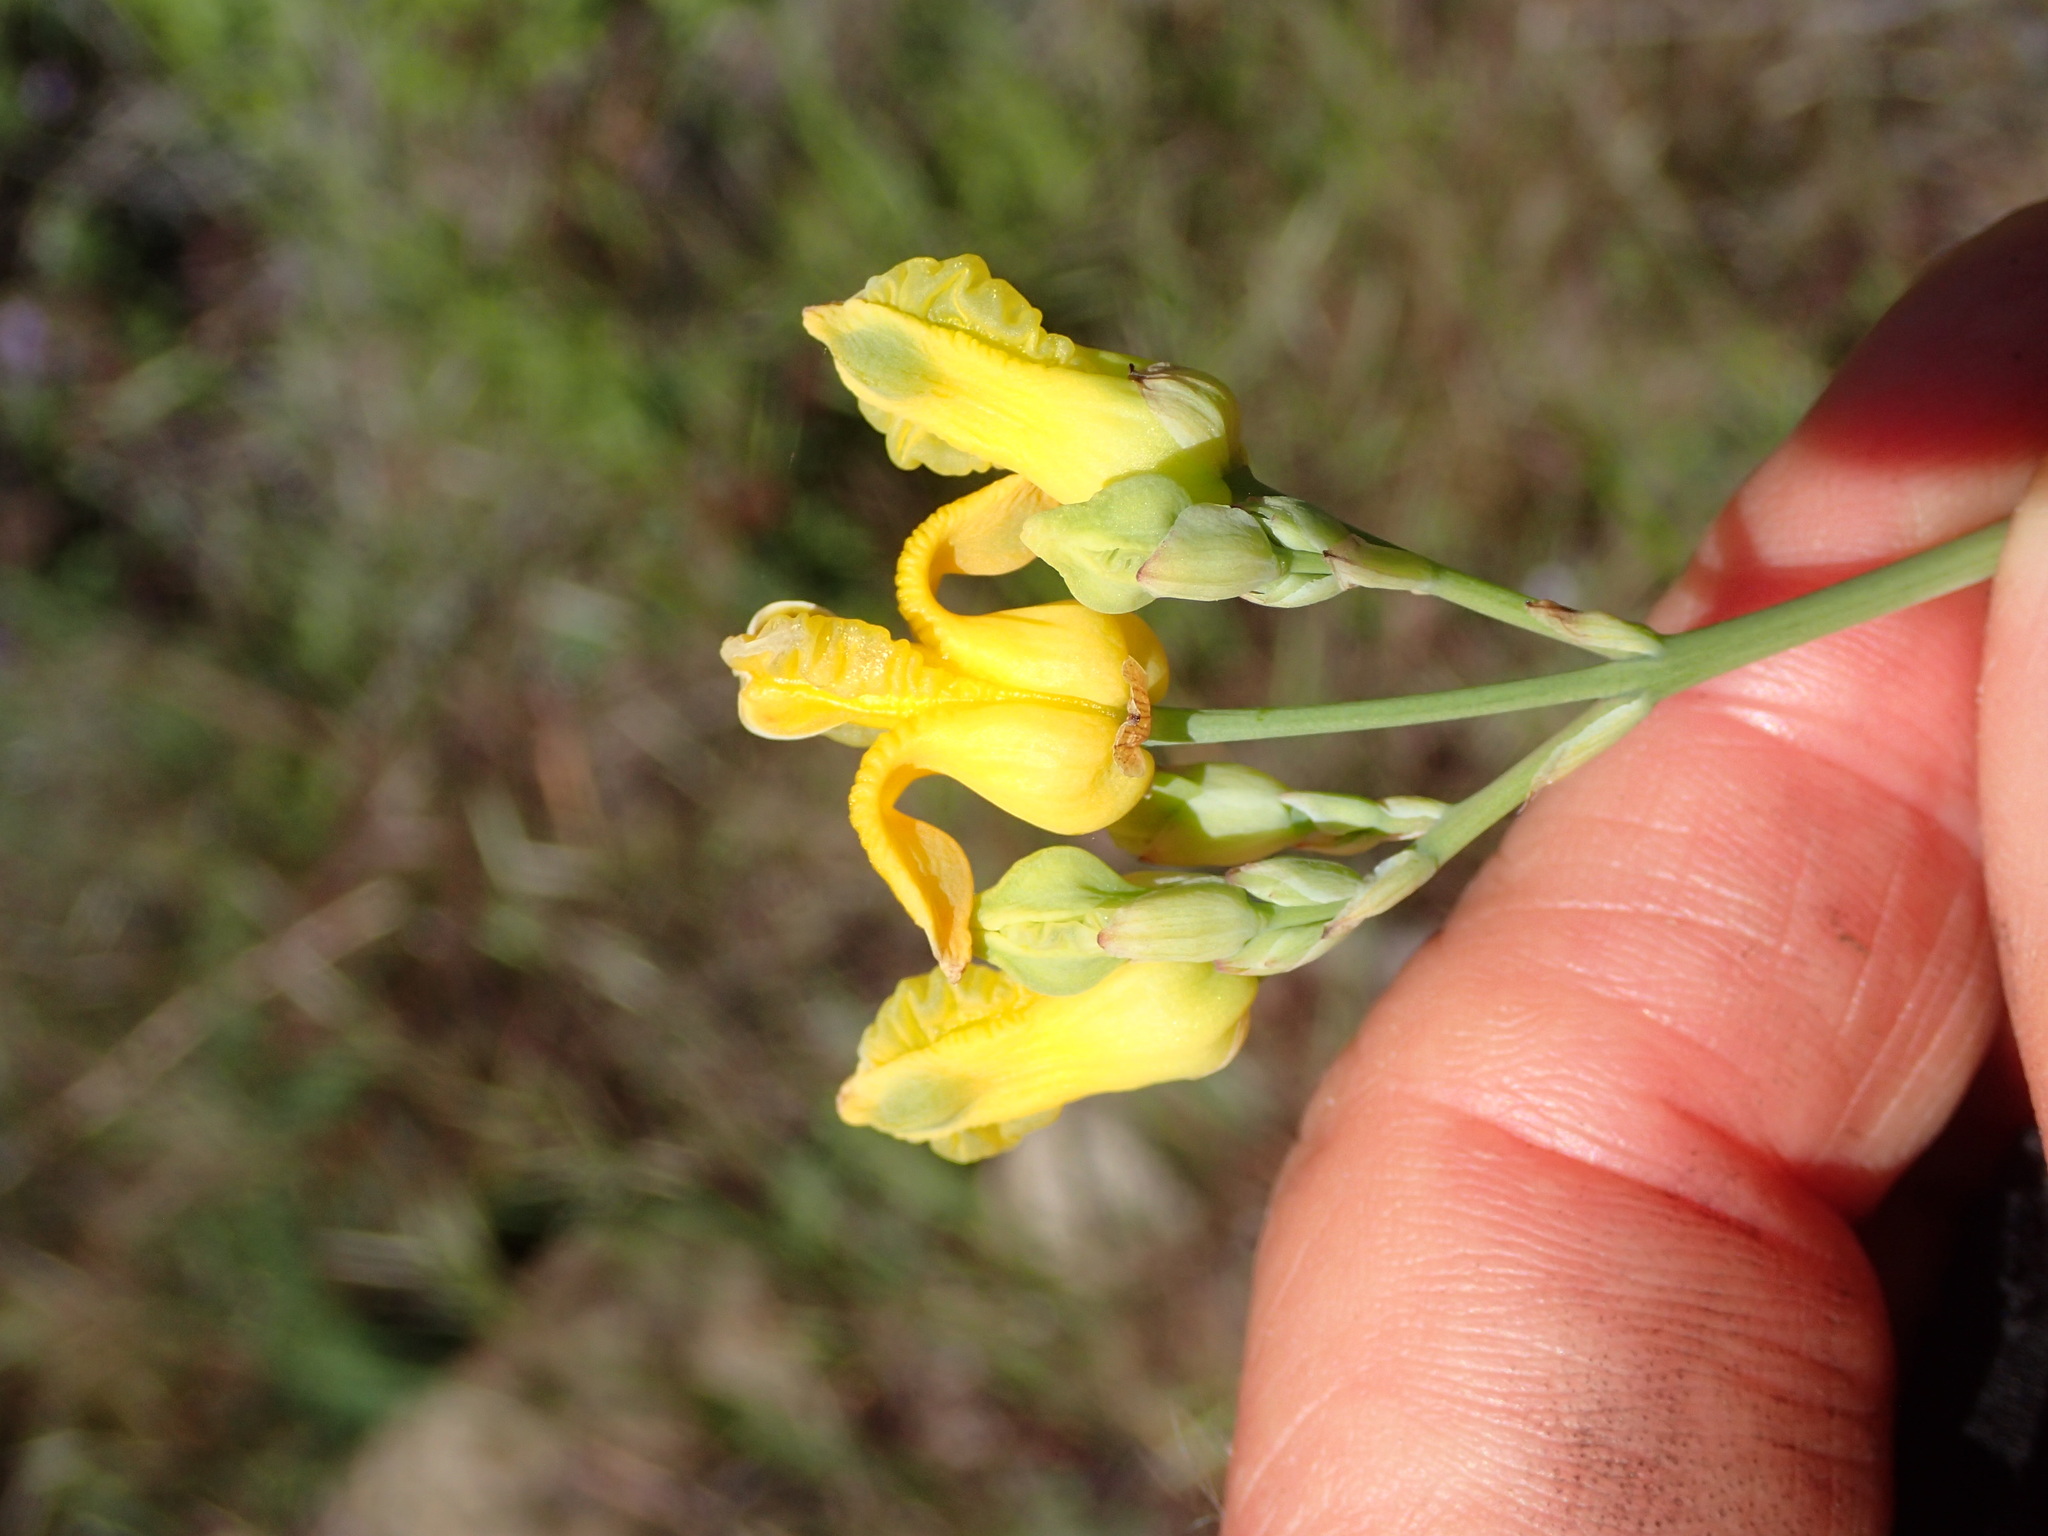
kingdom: Plantae
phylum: Tracheophyta
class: Magnoliopsida
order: Ranunculales
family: Papaveraceae
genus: Ehrendorferia
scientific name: Ehrendorferia chrysantha
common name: Golden eardrops
